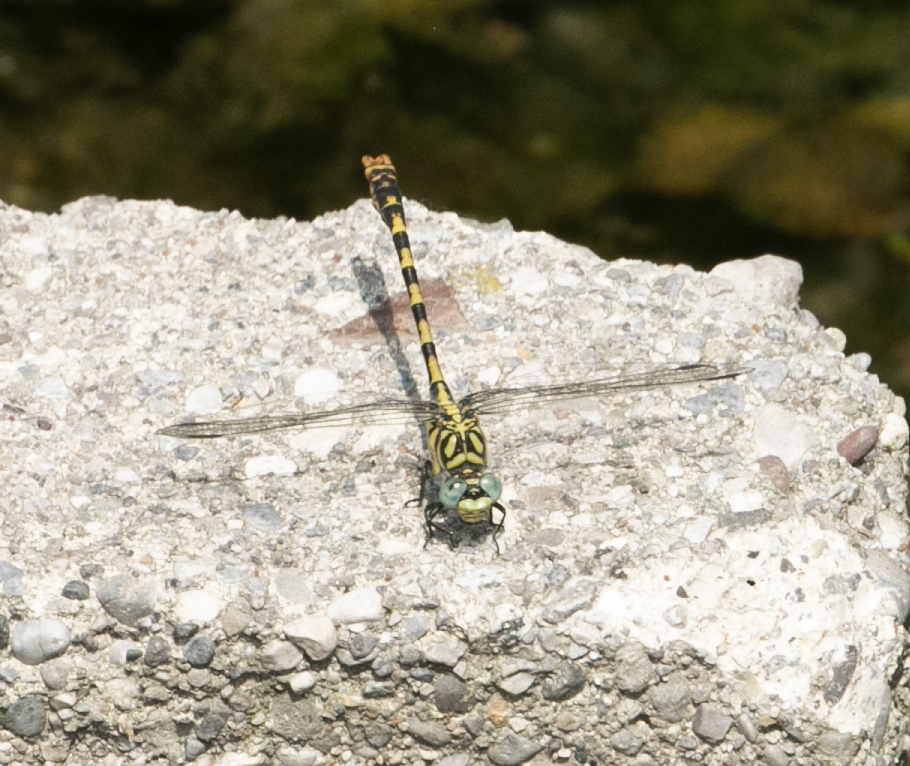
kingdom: Animalia
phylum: Arthropoda
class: Insecta
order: Odonata
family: Gomphidae
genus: Onychogomphus
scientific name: Onychogomphus forcipatus
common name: Small pincertail
